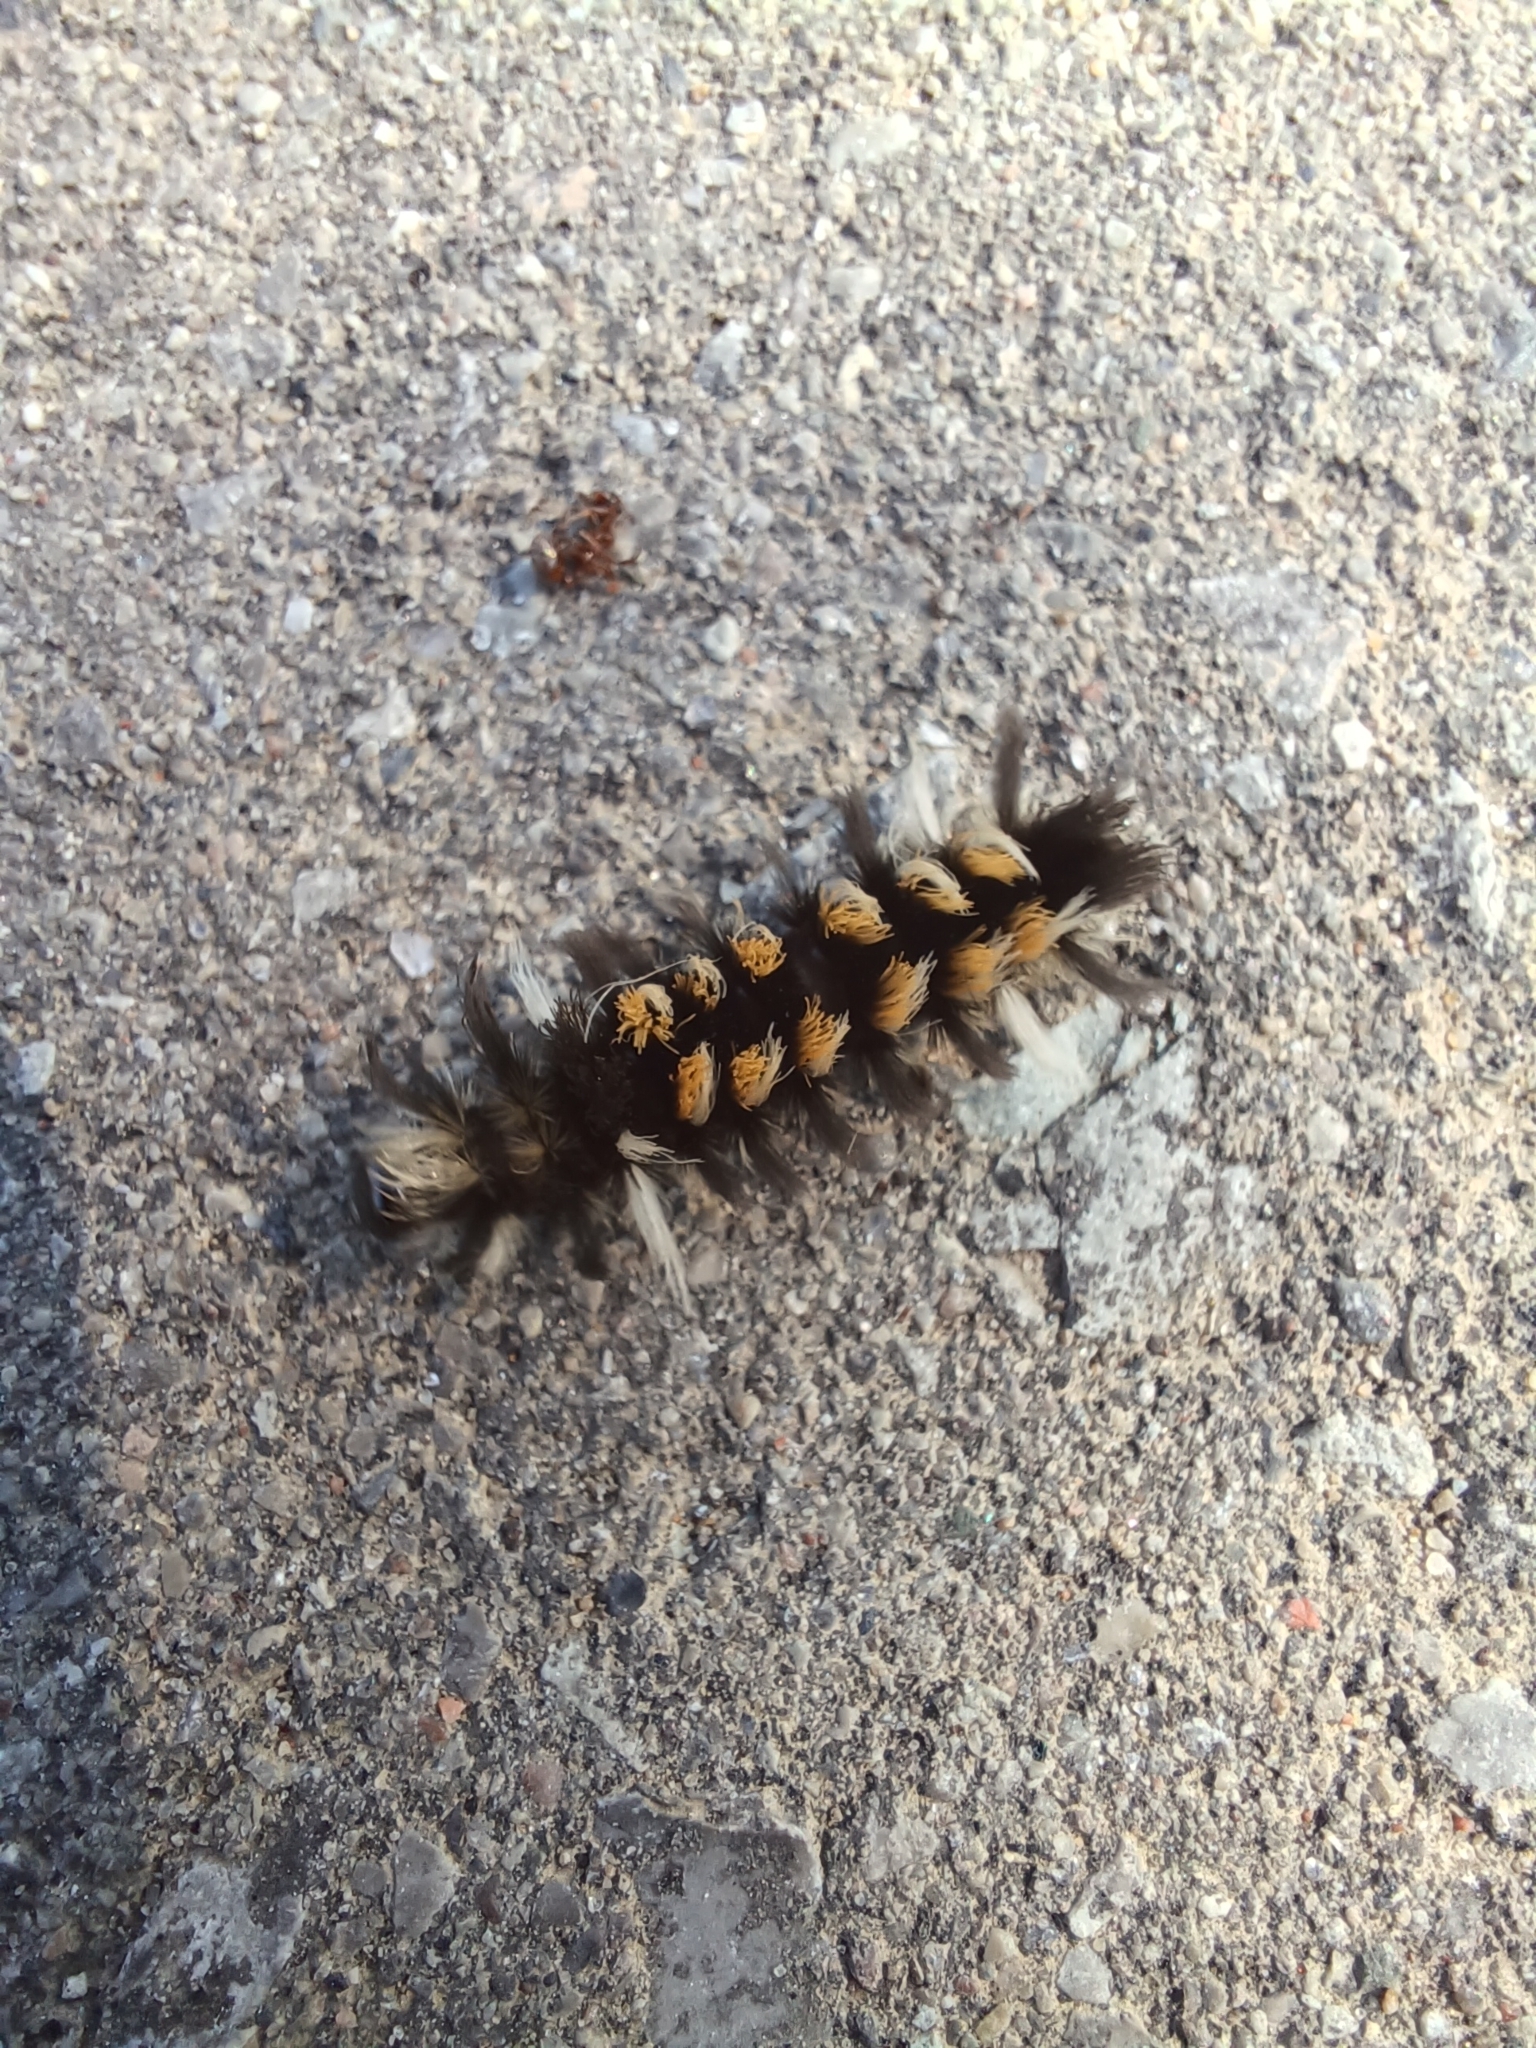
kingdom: Animalia
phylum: Arthropoda
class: Insecta
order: Lepidoptera
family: Erebidae
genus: Euchaetes
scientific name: Euchaetes egle
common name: Milkweed tussock moth
